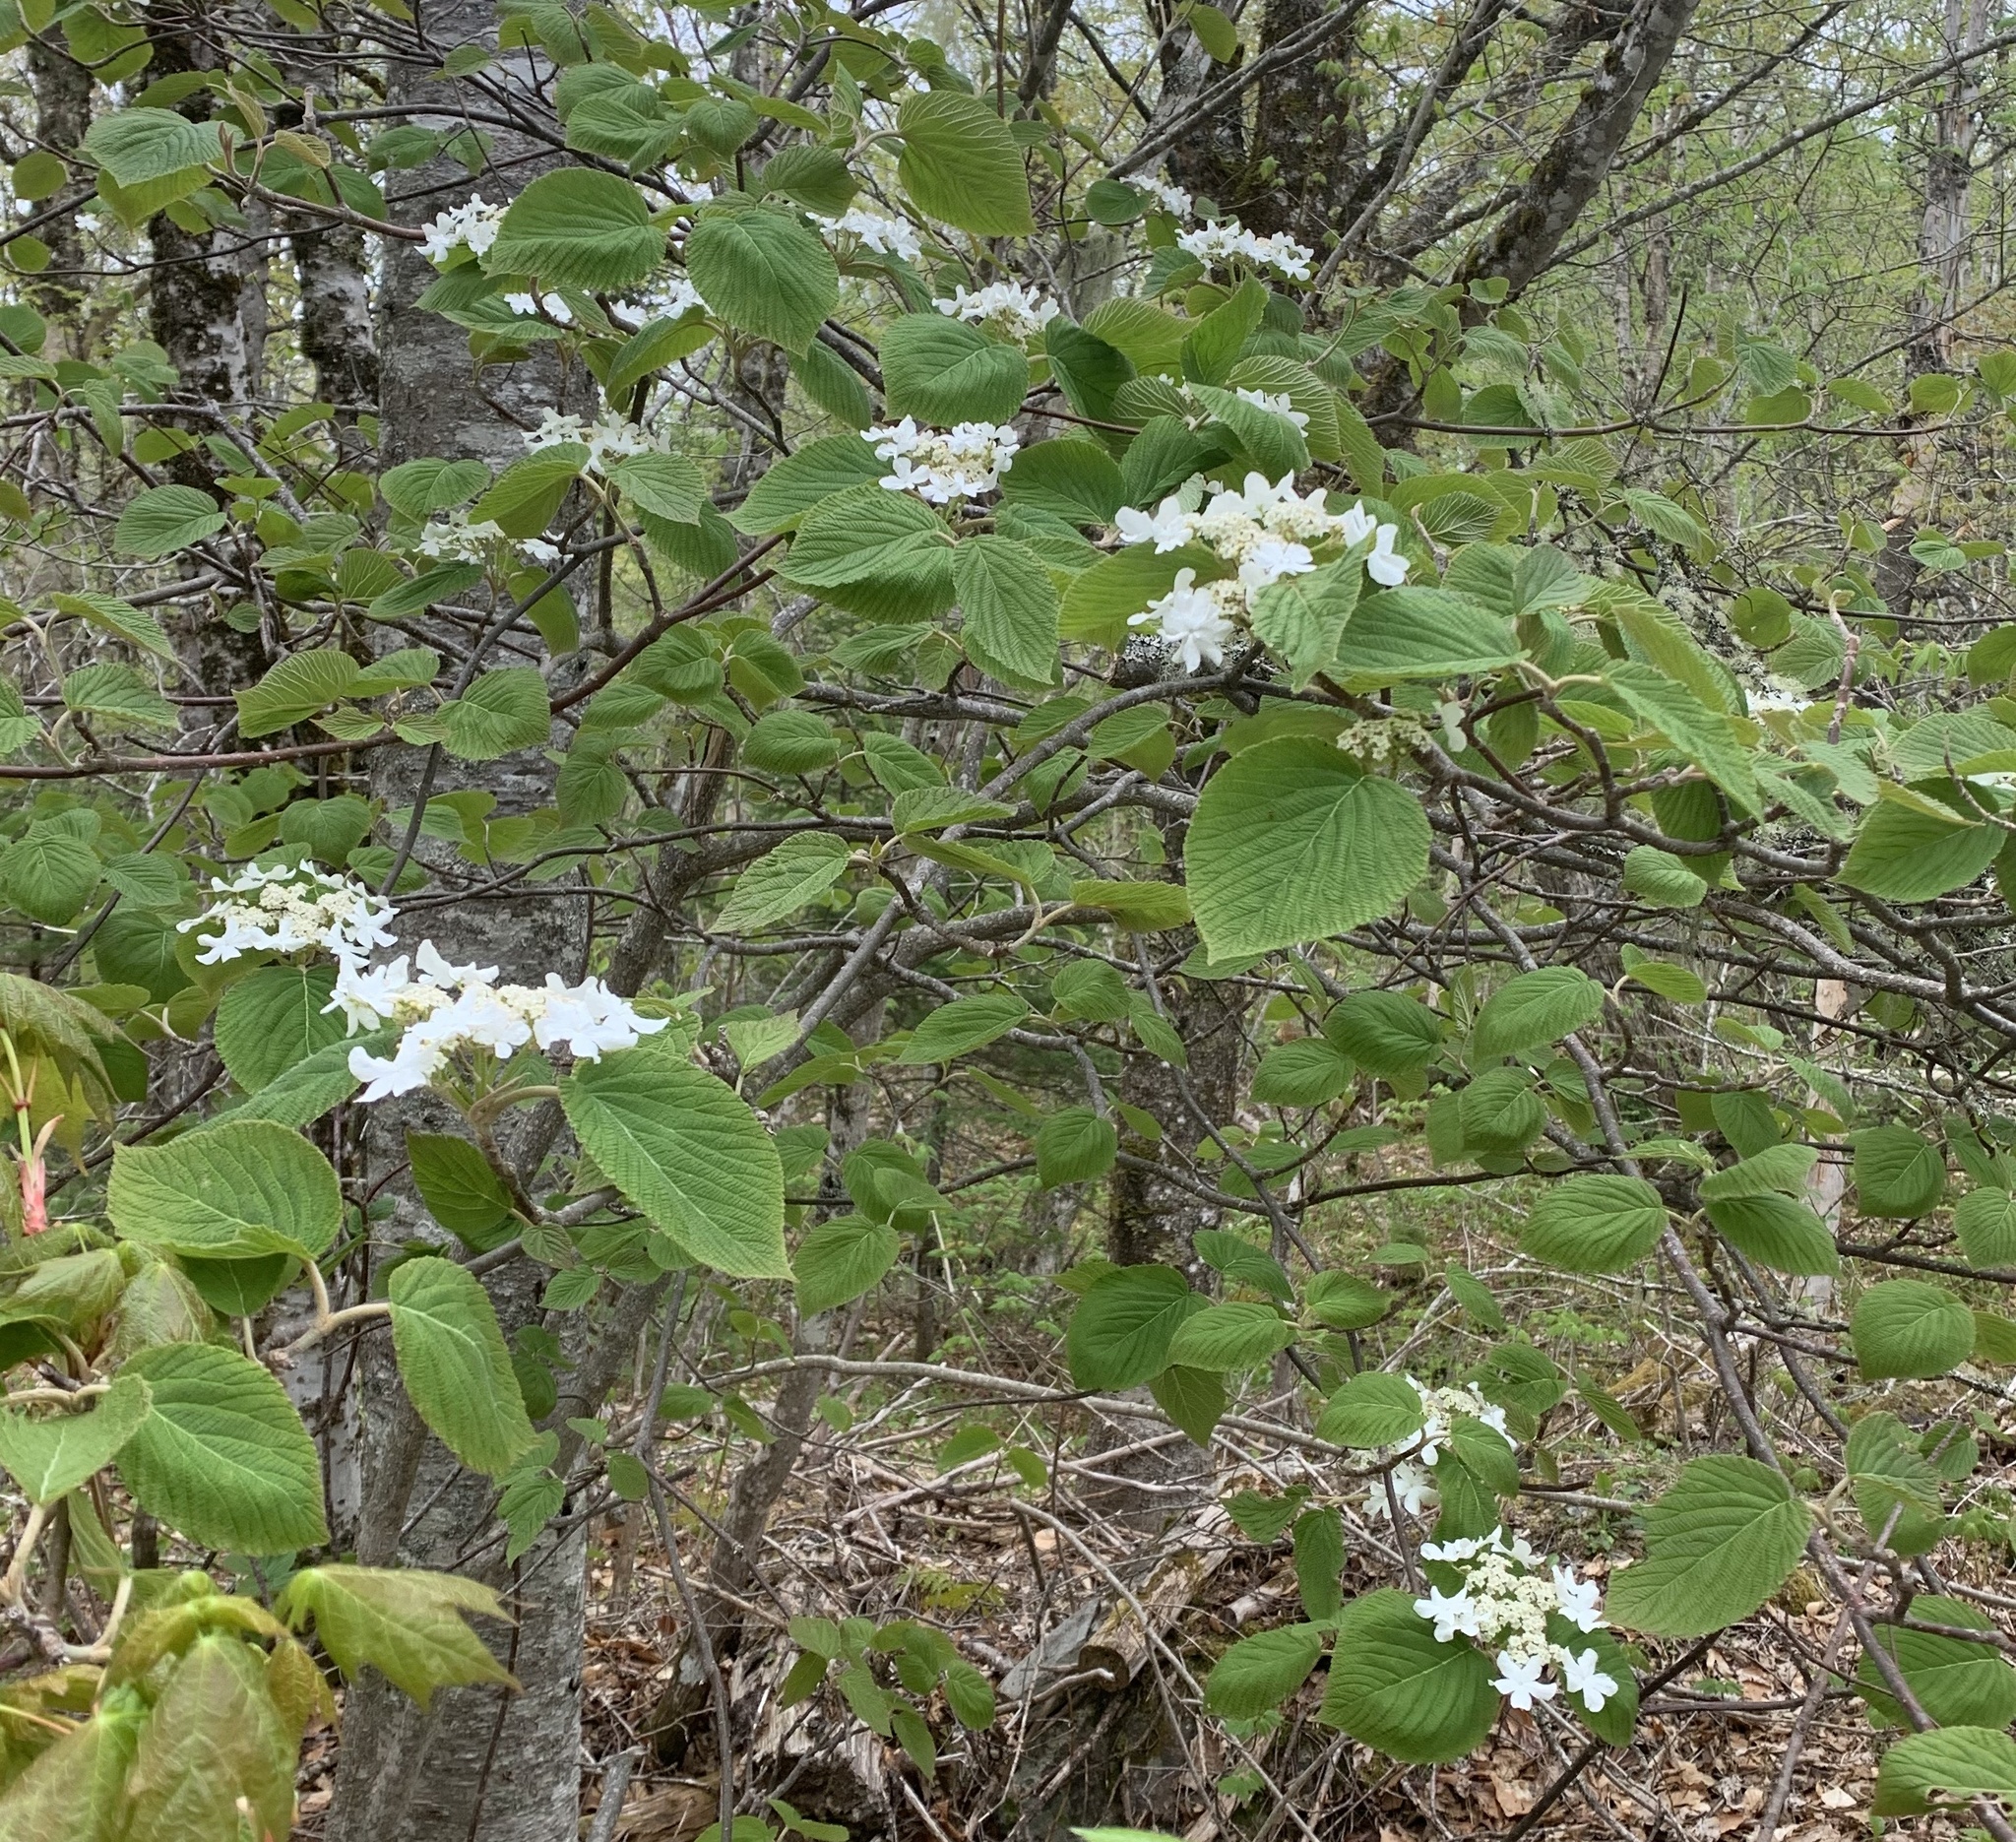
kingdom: Plantae
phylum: Tracheophyta
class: Magnoliopsida
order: Dipsacales
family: Viburnaceae
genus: Viburnum
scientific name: Viburnum lantanoides
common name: Hobblebush
